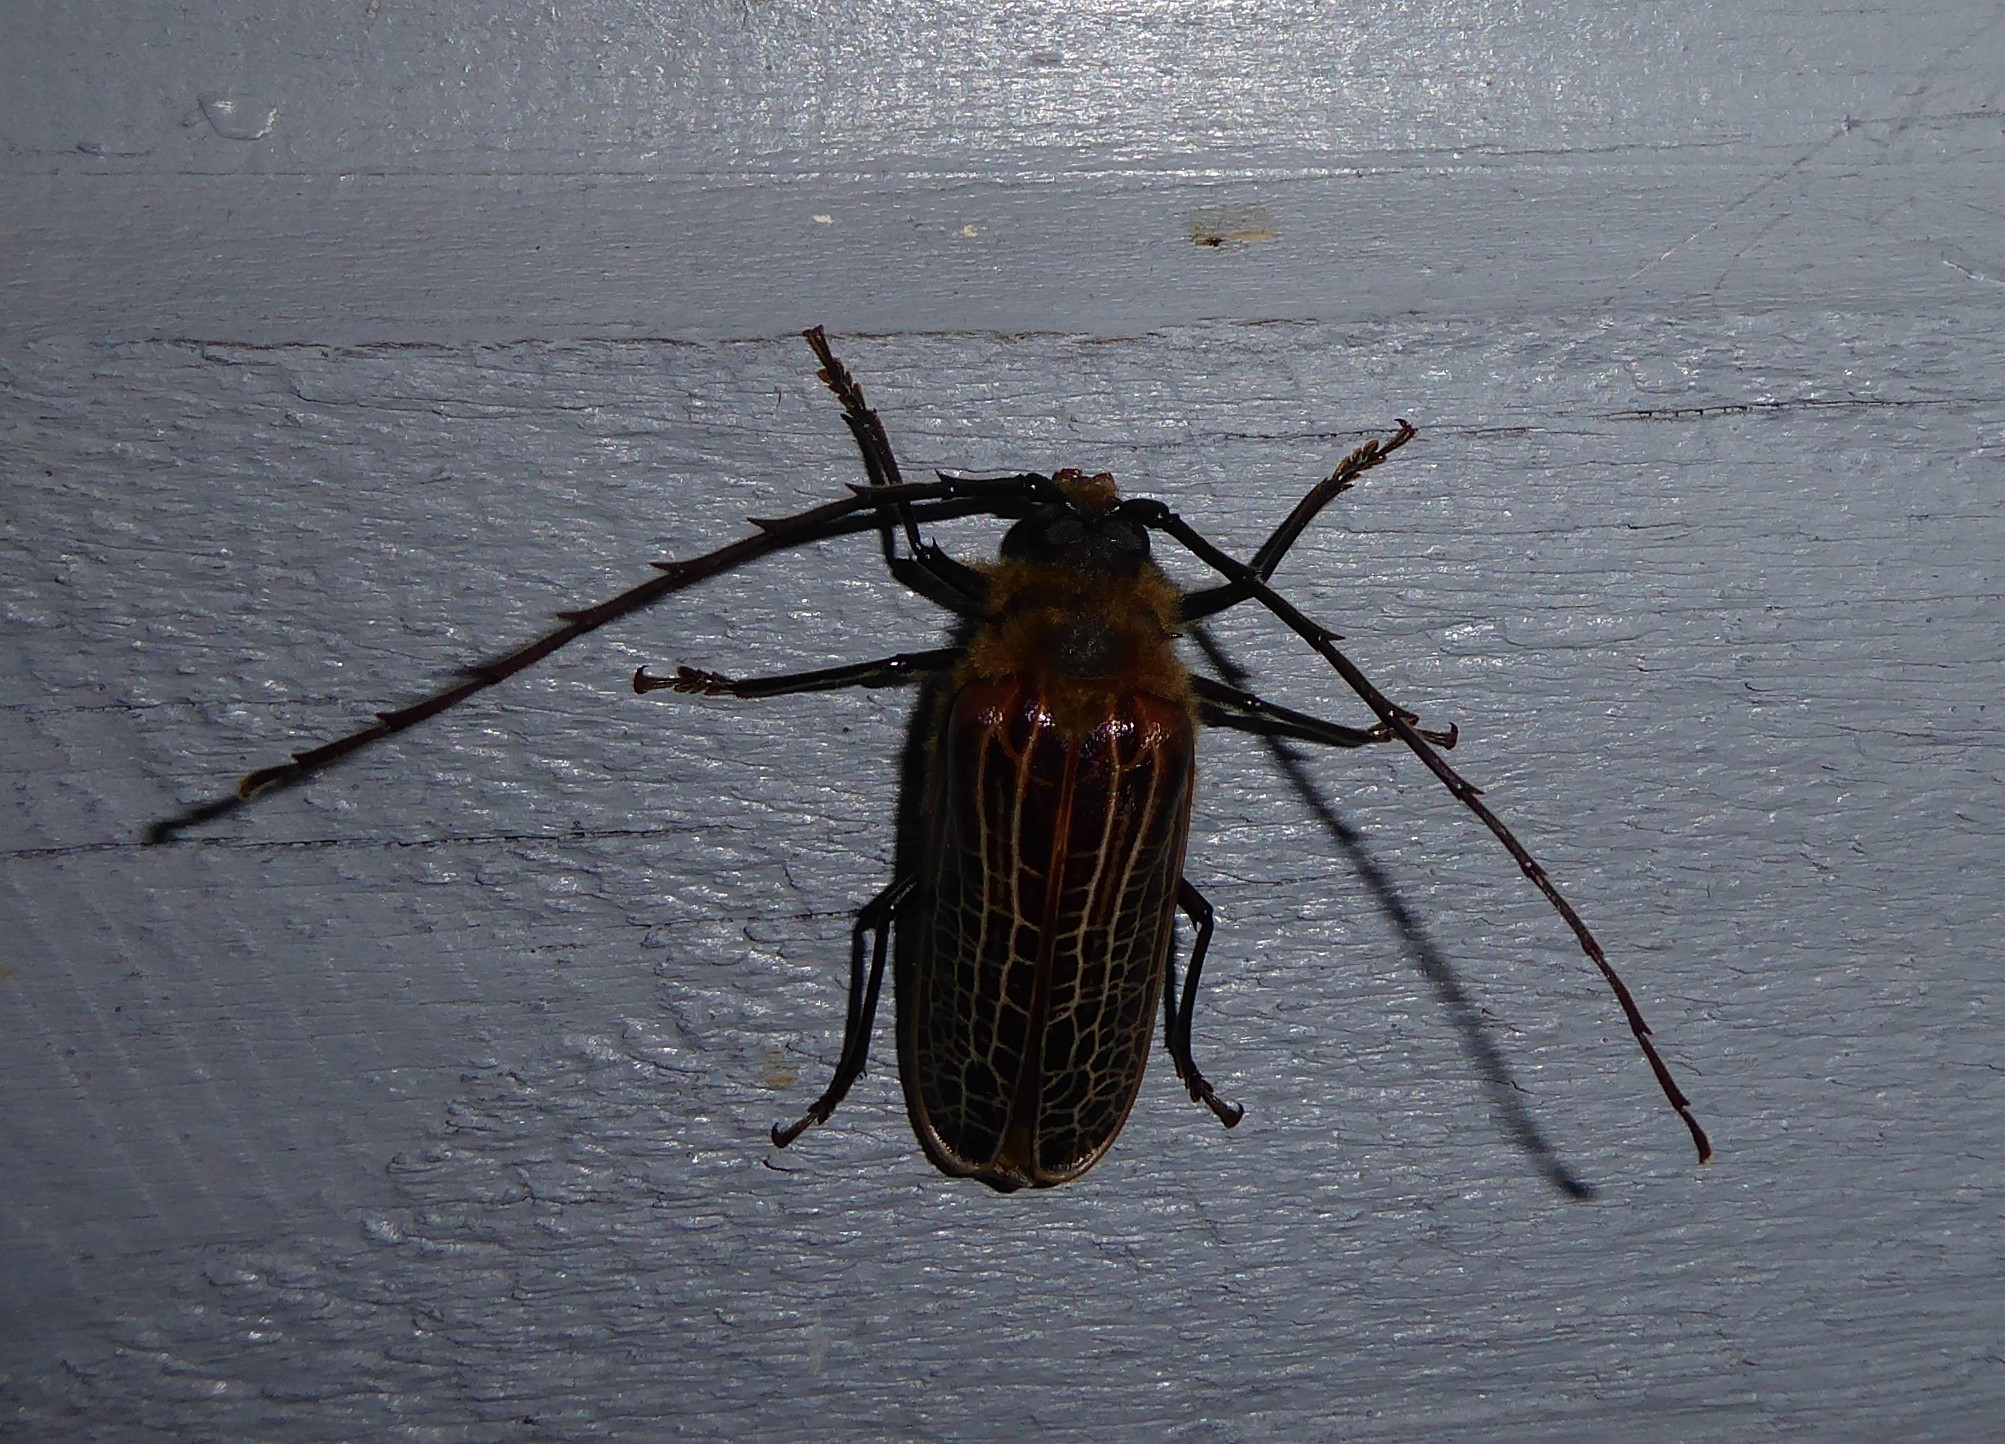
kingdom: Animalia
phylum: Arthropoda
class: Insecta
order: Coleoptera
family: Cerambycidae
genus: Prionoplus
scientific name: Prionoplus reticularis
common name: Huhu beetle
